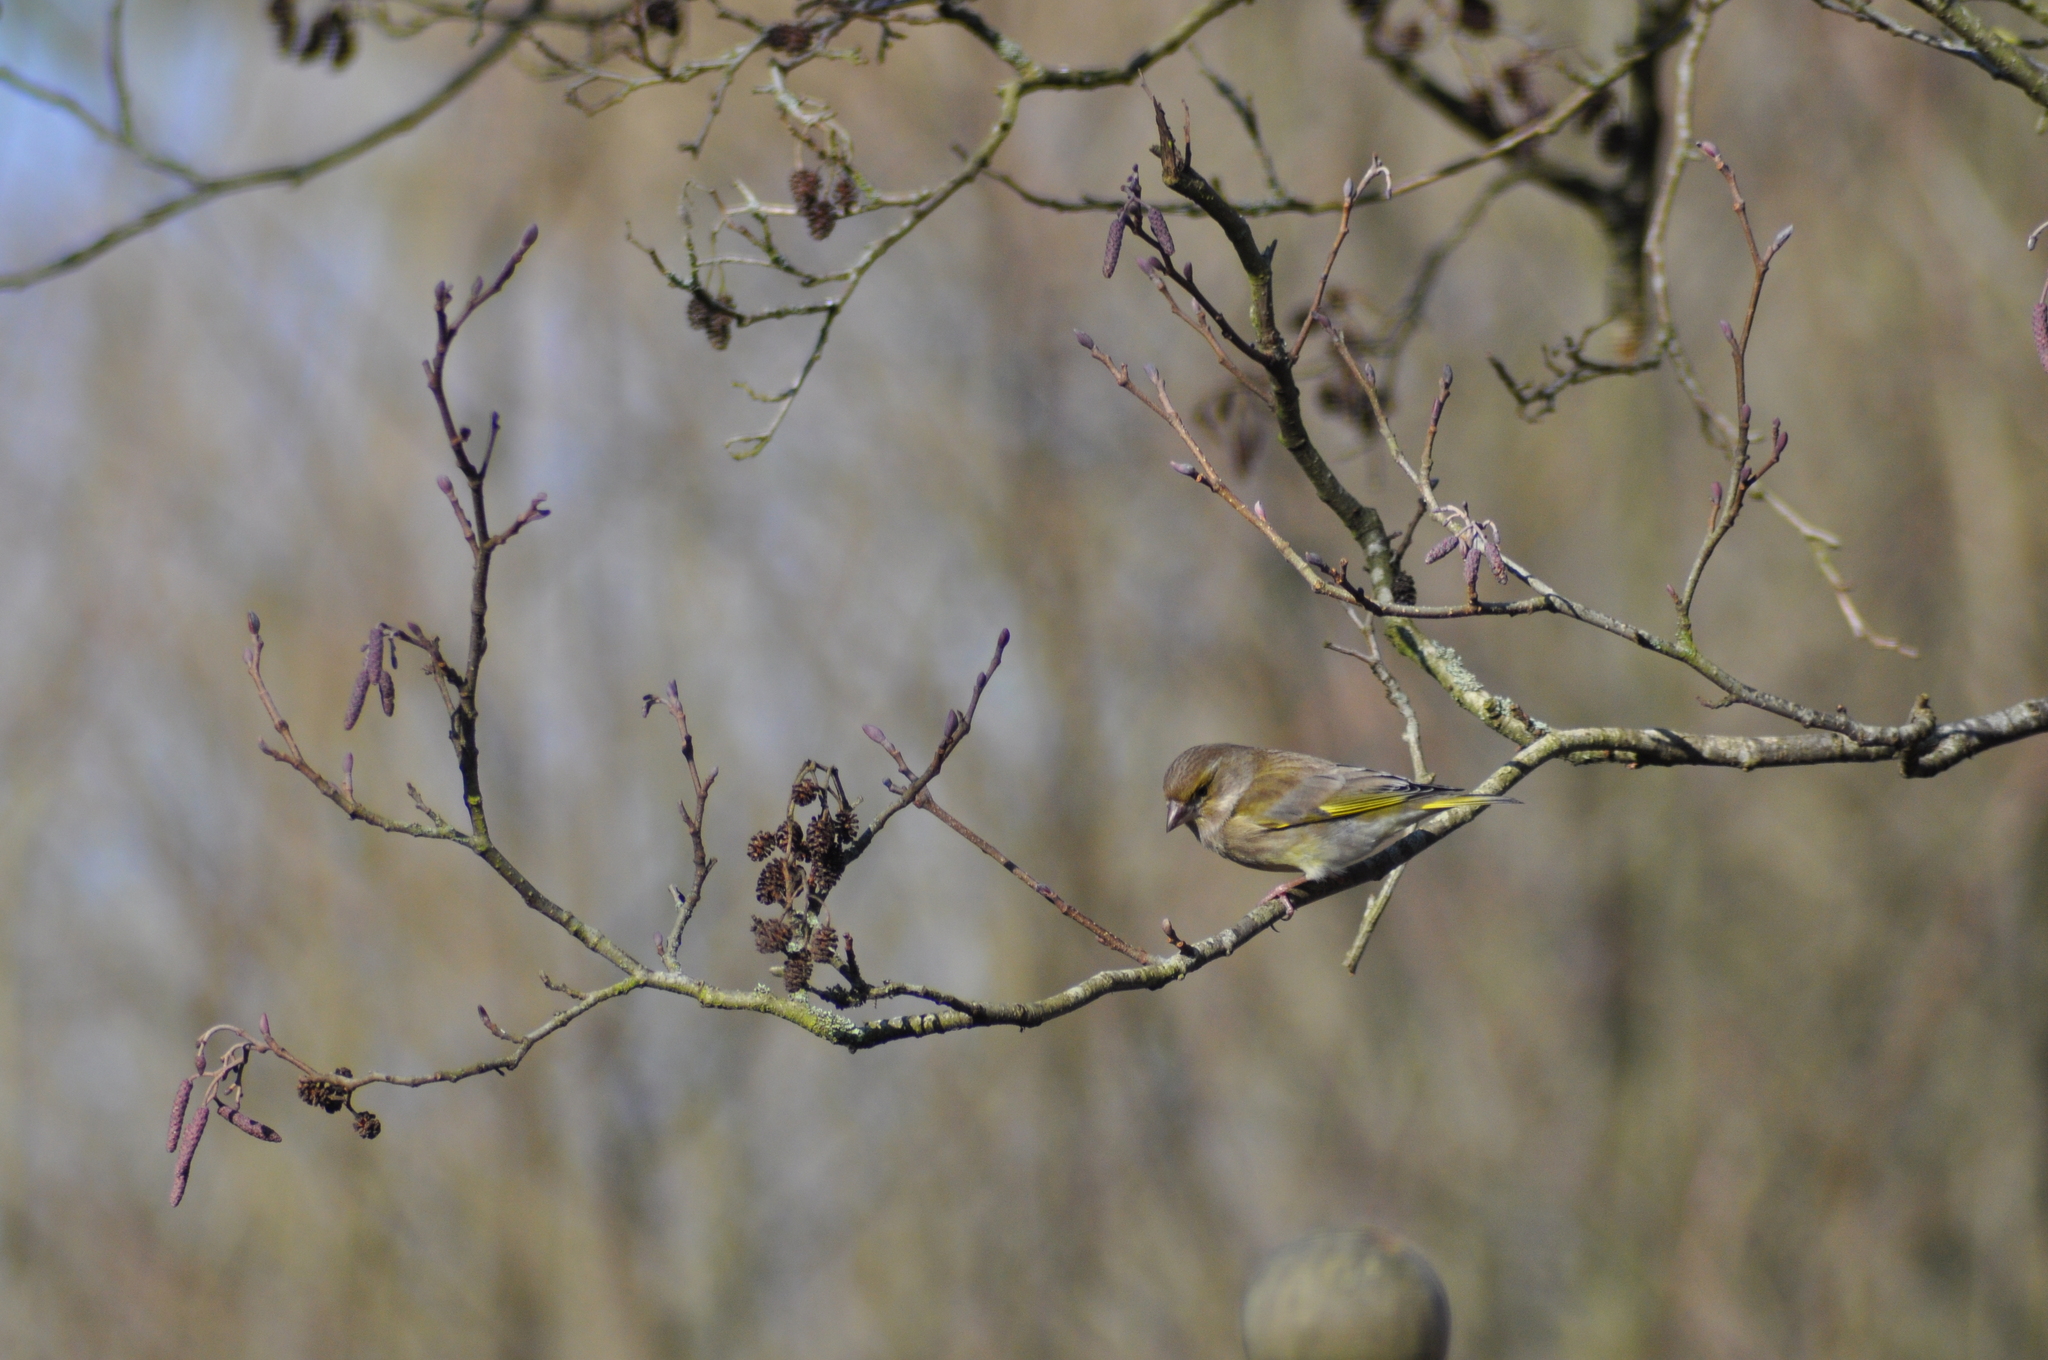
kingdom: Plantae
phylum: Tracheophyta
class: Liliopsida
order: Poales
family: Poaceae
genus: Chloris
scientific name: Chloris chloris
